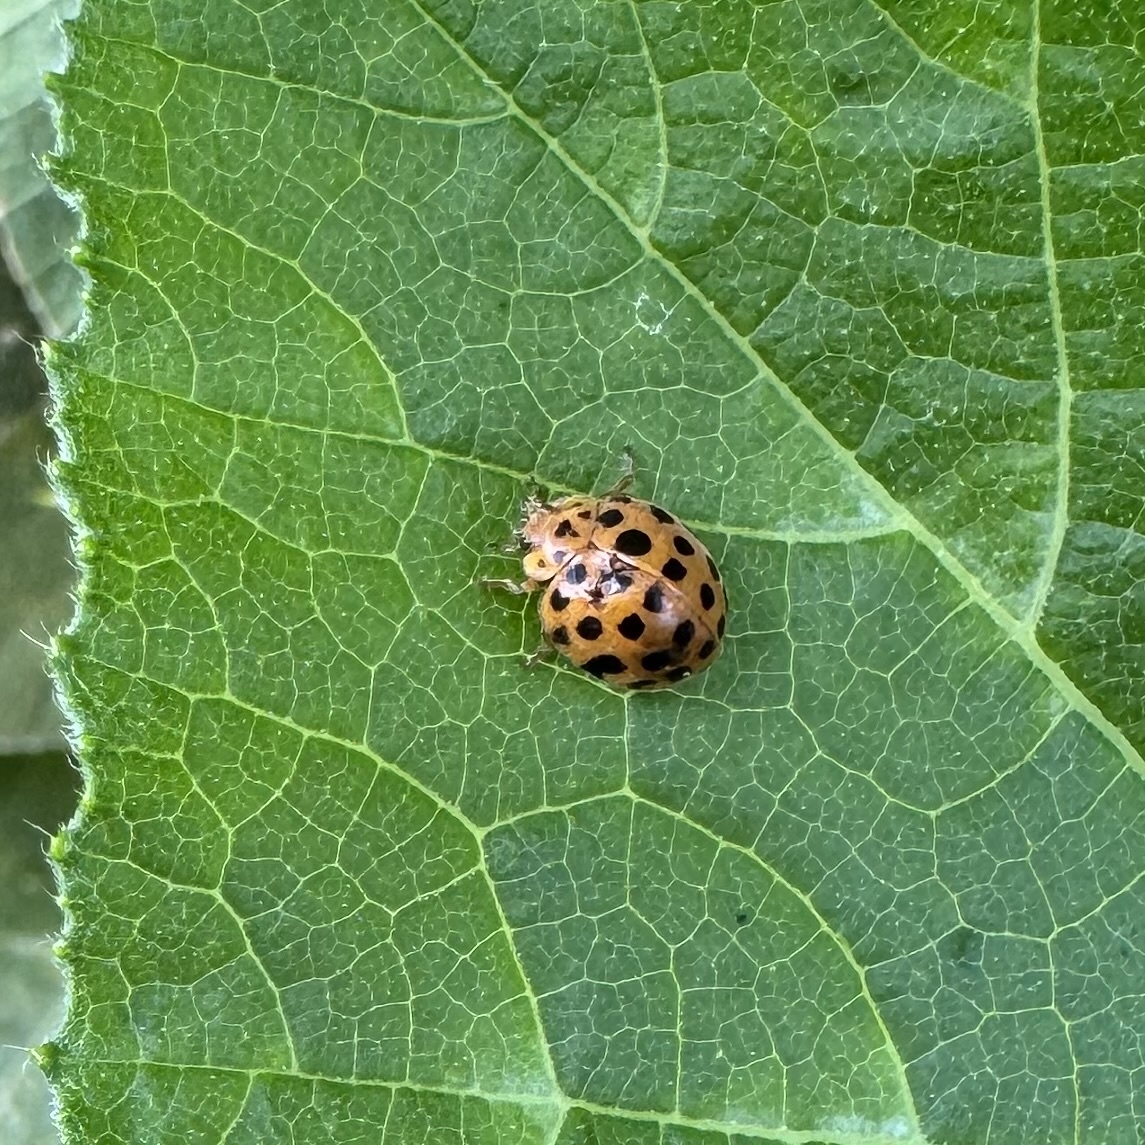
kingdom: Animalia
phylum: Arthropoda
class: Insecta
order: Coleoptera
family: Coccinellidae
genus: Henosepilachna
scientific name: Henosepilachna sumbana
